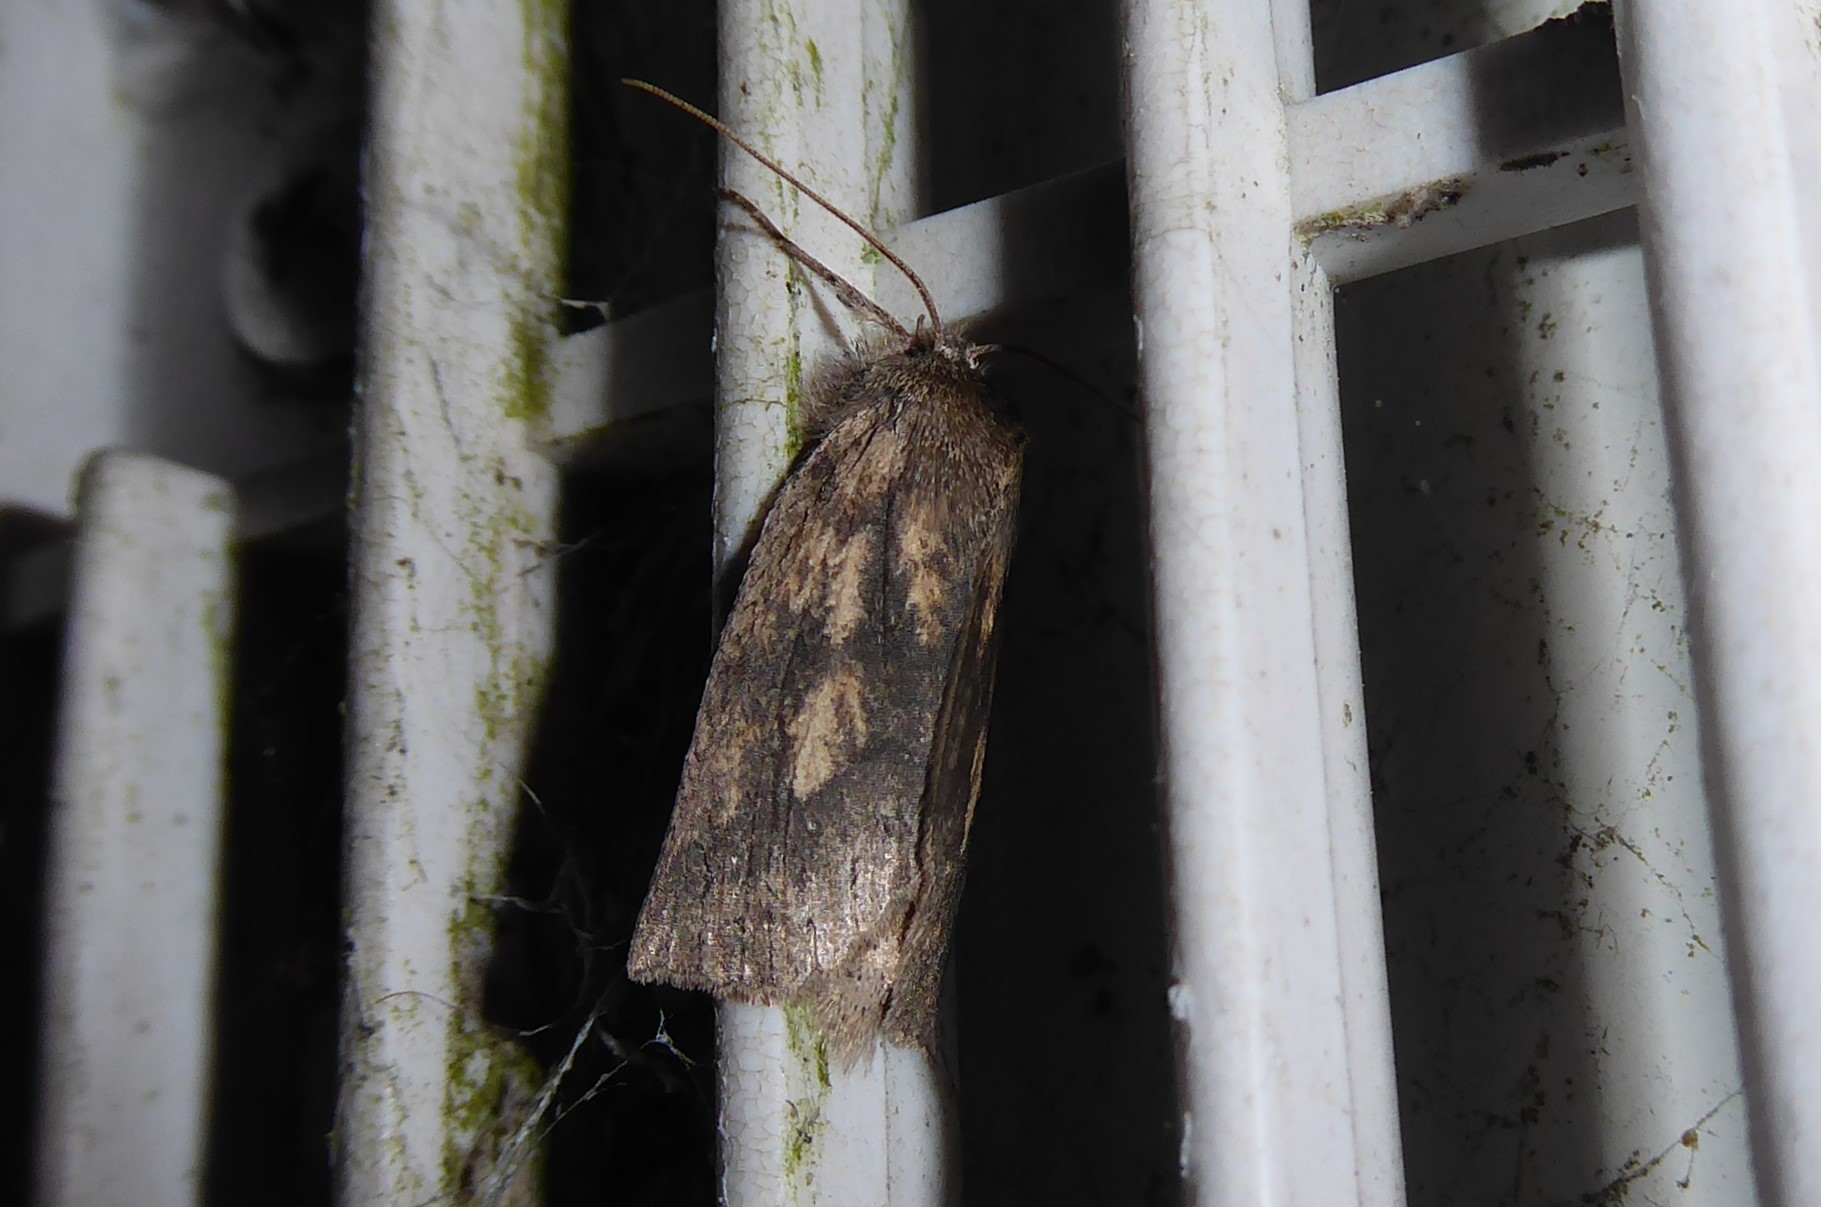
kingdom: Animalia
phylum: Arthropoda
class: Insecta
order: Lepidoptera
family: Geometridae
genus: Declana
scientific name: Declana leptomera
